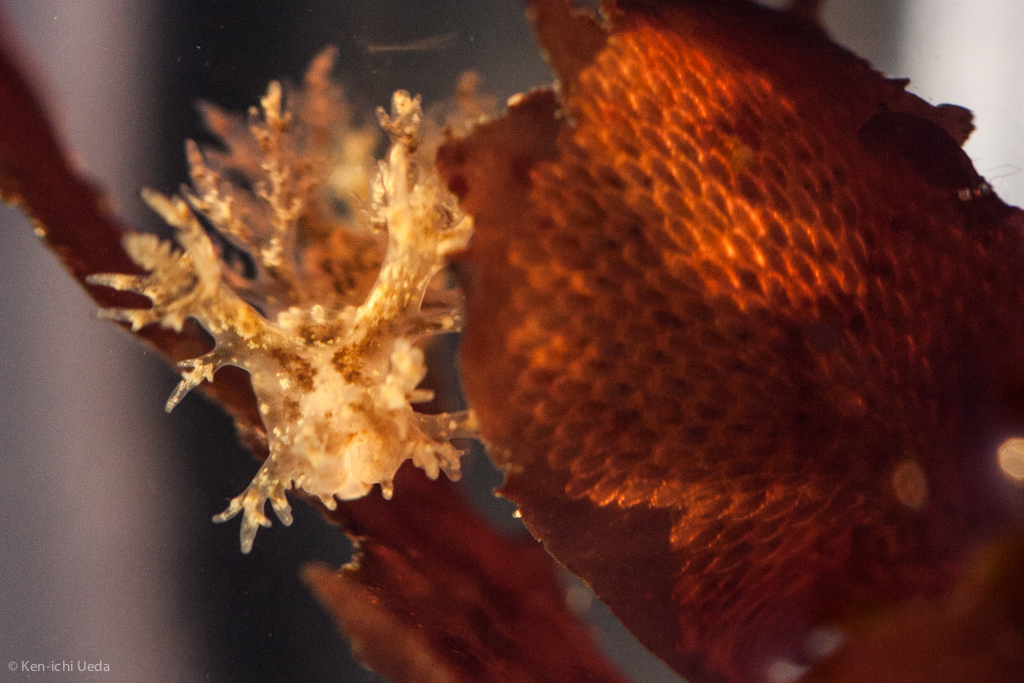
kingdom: Animalia
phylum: Mollusca
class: Gastropoda
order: Nudibranchia
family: Dendronotidae
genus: Dendronotus
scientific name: Dendronotus venustus
